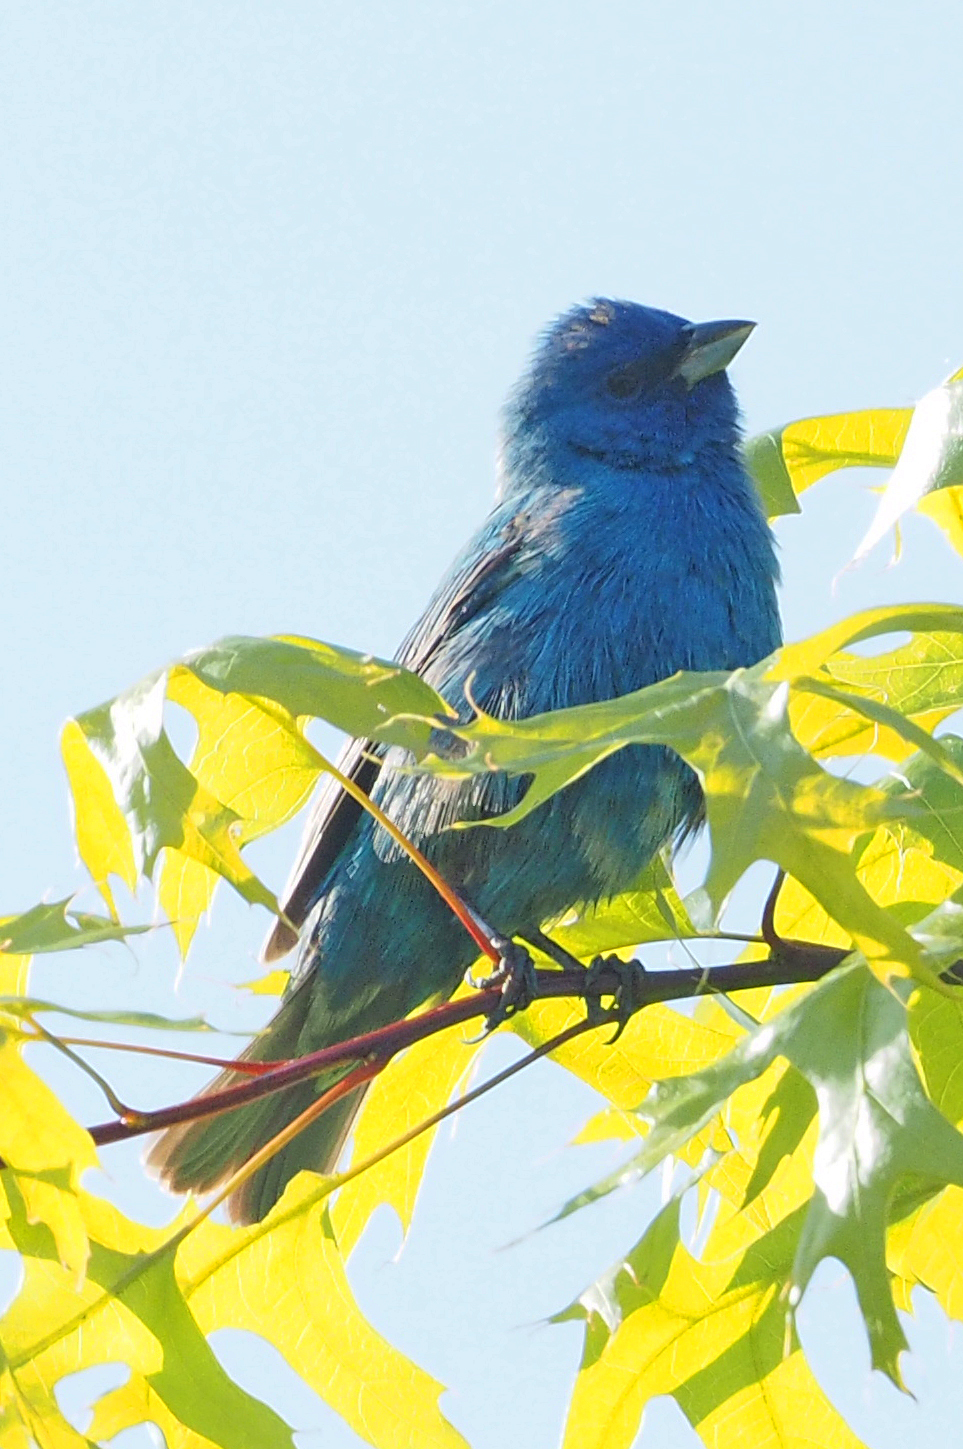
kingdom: Animalia
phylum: Chordata
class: Aves
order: Passeriformes
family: Cardinalidae
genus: Passerina
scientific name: Passerina cyanea
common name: Indigo bunting
